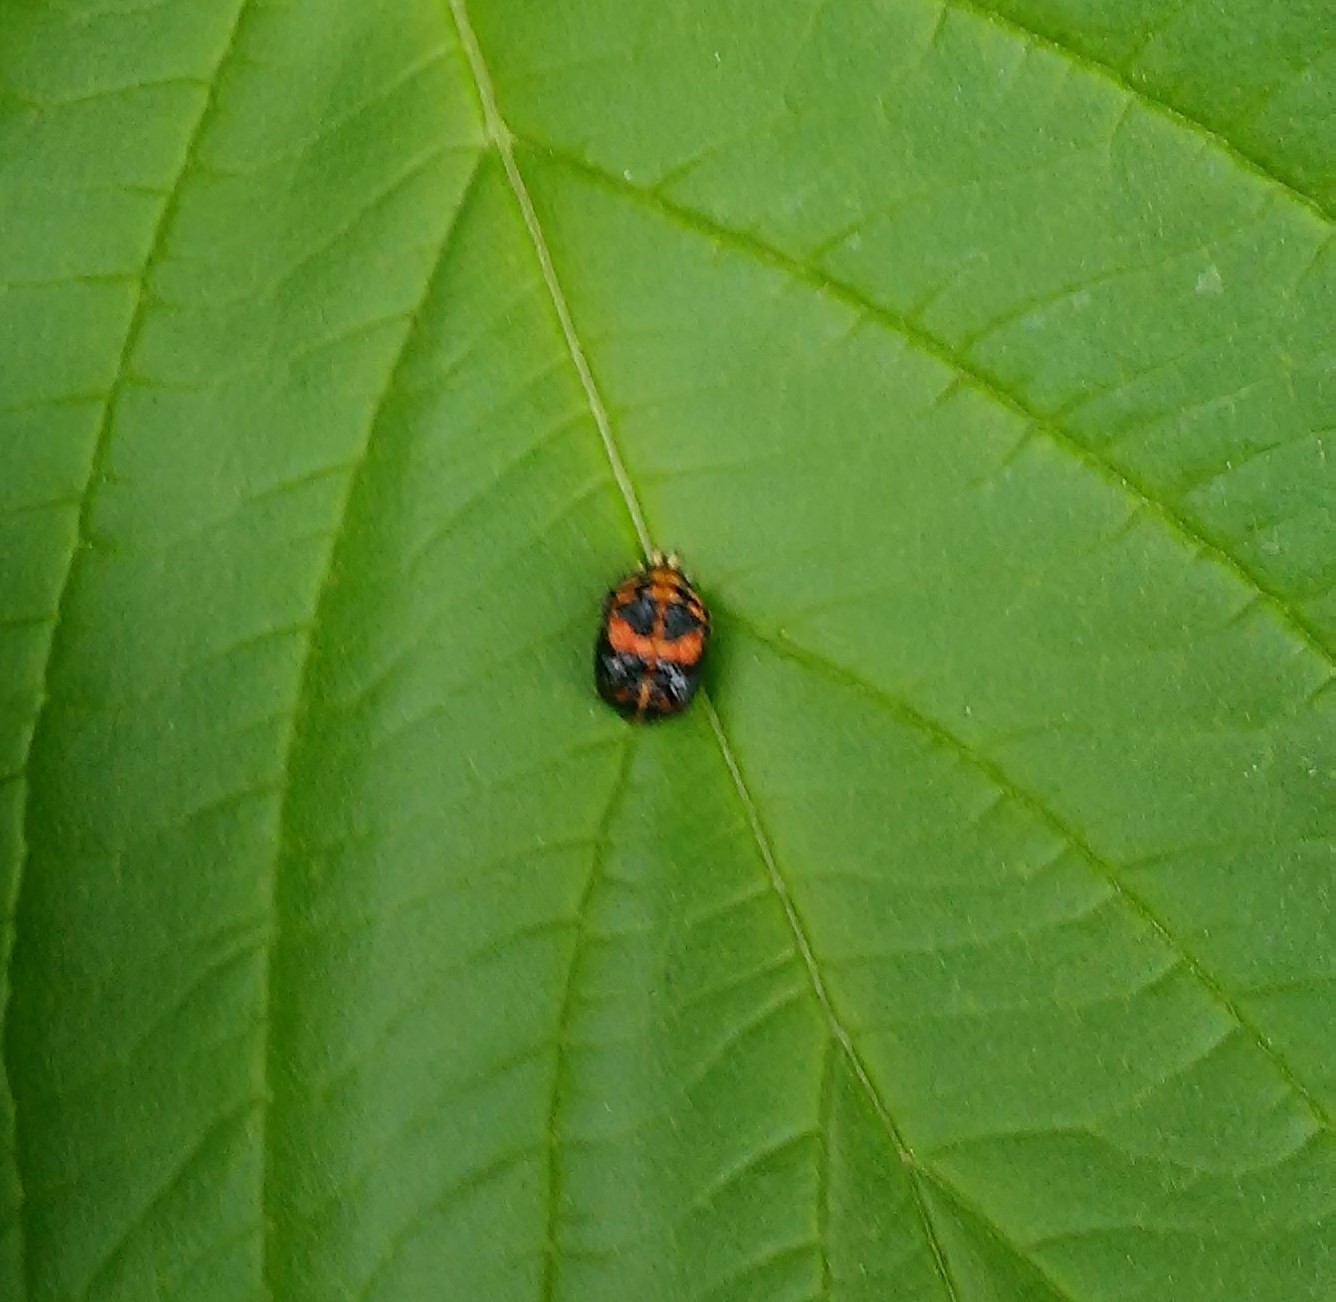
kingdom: Animalia
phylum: Arthropoda
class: Insecta
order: Coleoptera
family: Coccinellidae
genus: Coccinellina
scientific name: Coccinellina
